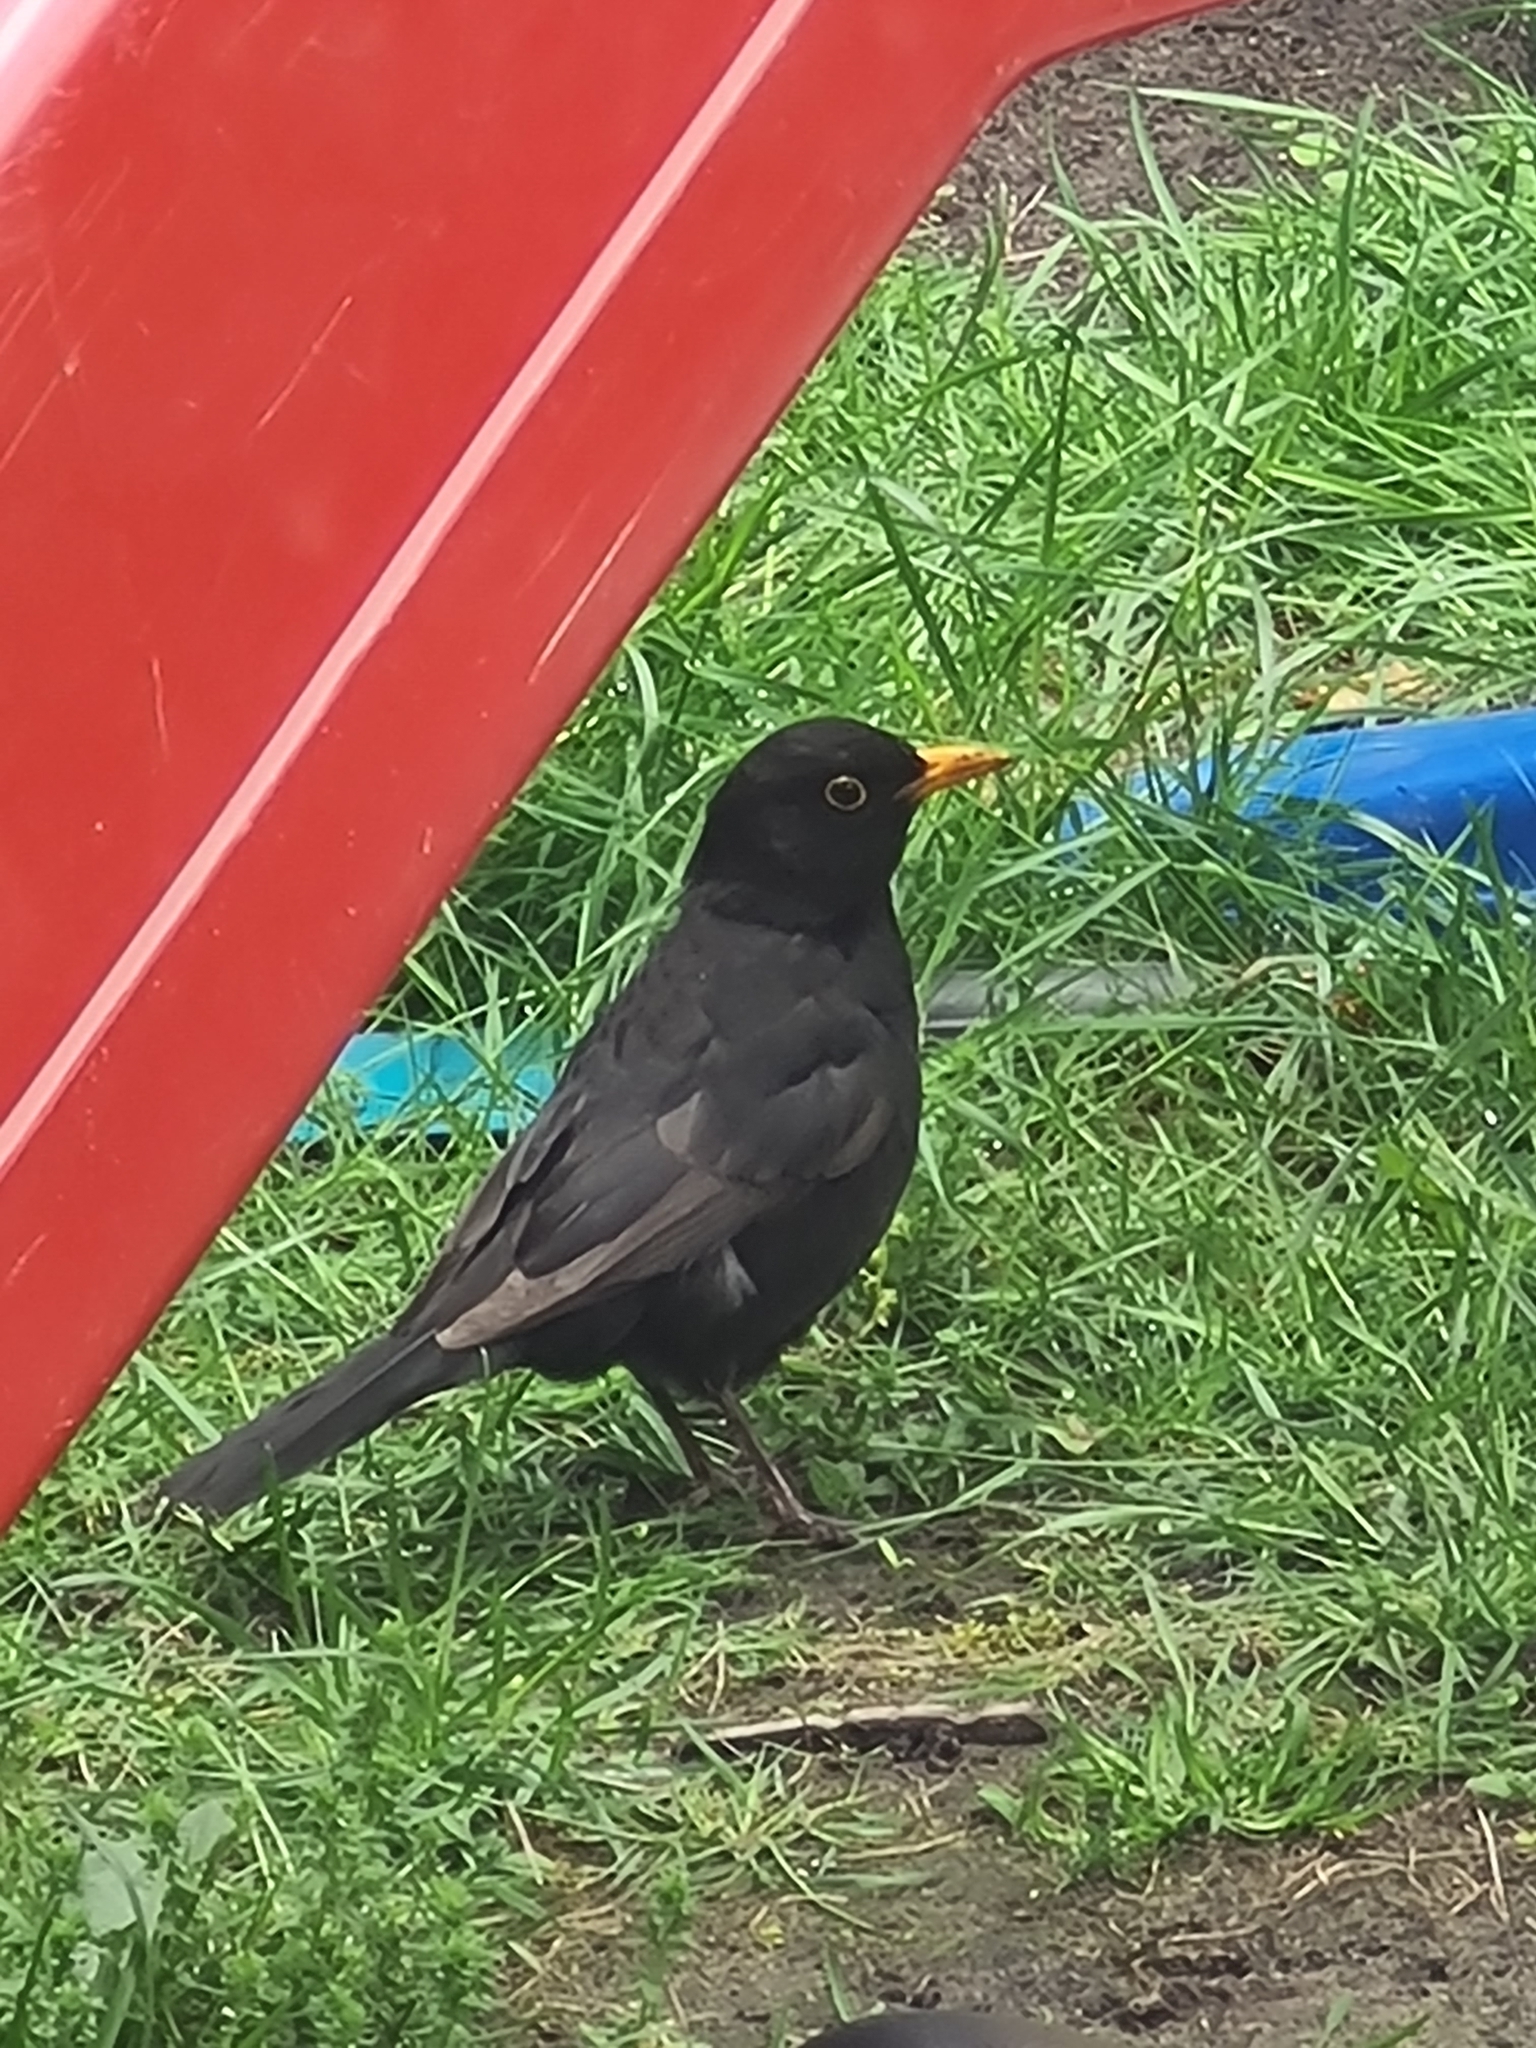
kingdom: Animalia
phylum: Chordata
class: Aves
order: Passeriformes
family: Turdidae
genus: Turdus
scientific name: Turdus merula
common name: Common blackbird
